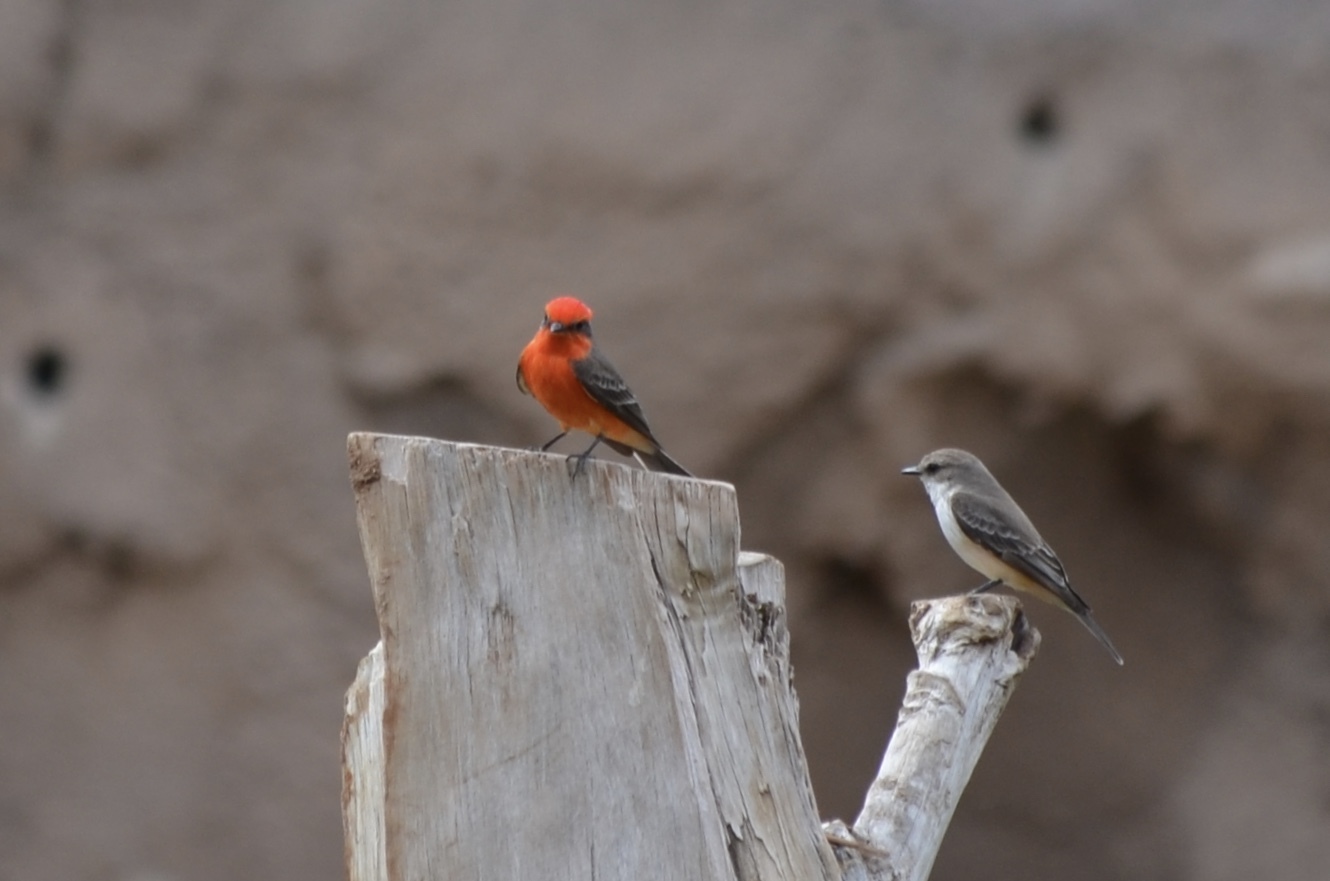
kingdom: Animalia
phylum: Chordata
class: Aves
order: Passeriformes
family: Tyrannidae
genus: Pyrocephalus
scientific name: Pyrocephalus rubinus
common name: Vermilion flycatcher
